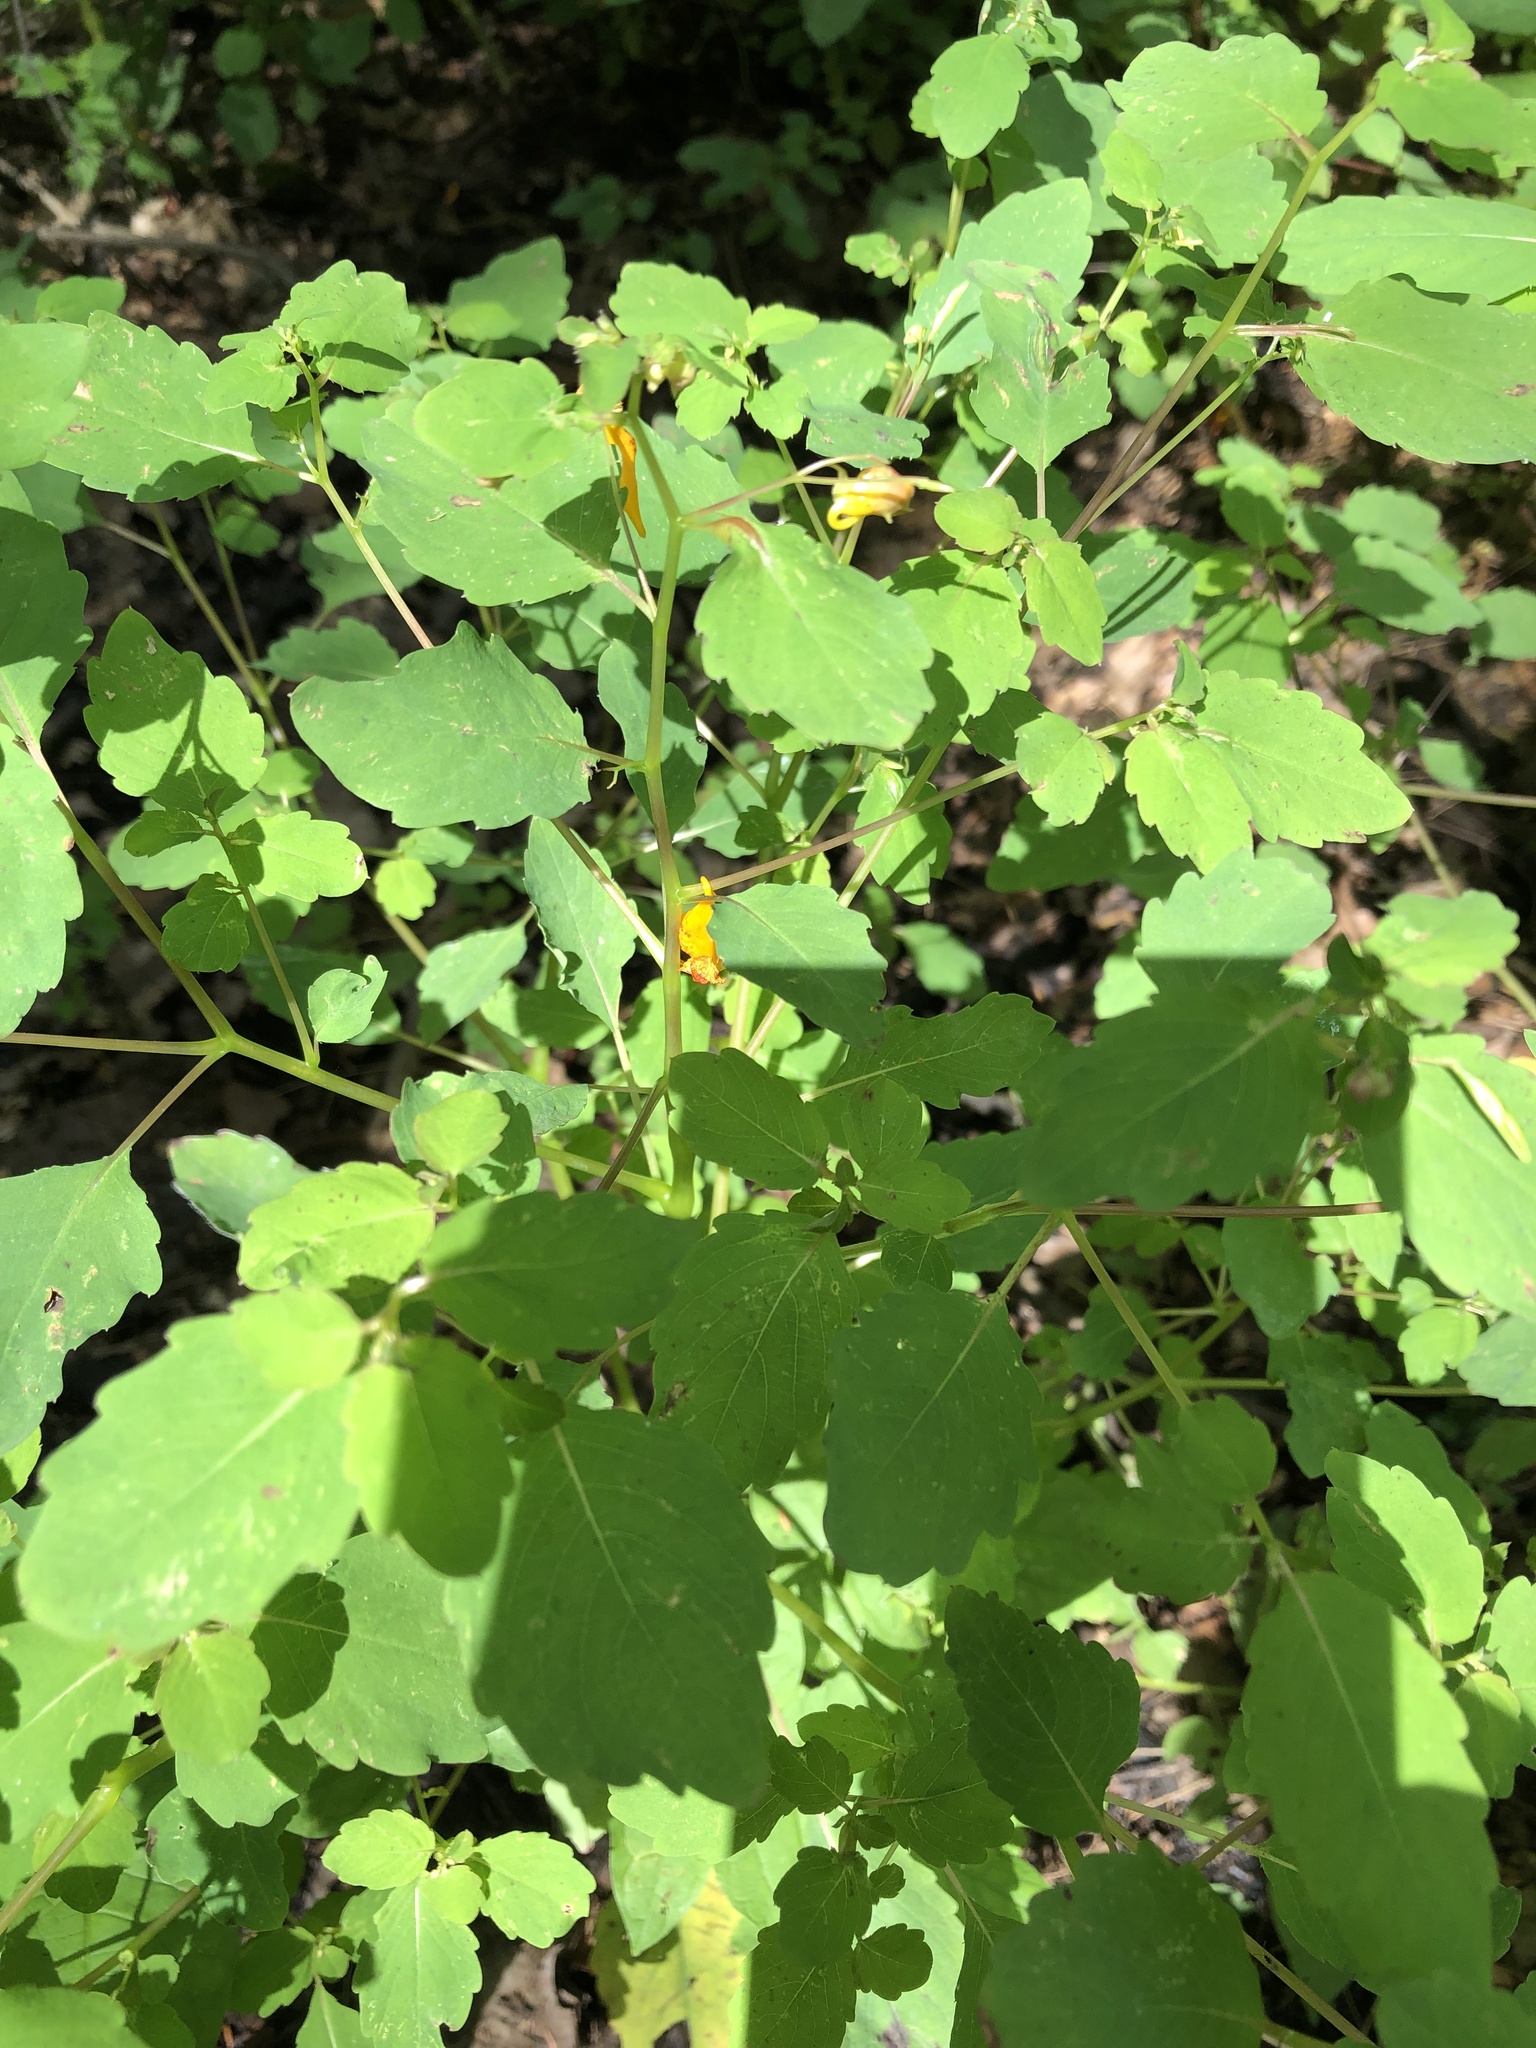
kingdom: Plantae
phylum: Tracheophyta
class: Magnoliopsida
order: Ericales
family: Balsaminaceae
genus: Impatiens
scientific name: Impatiens capensis
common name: Orange balsam
